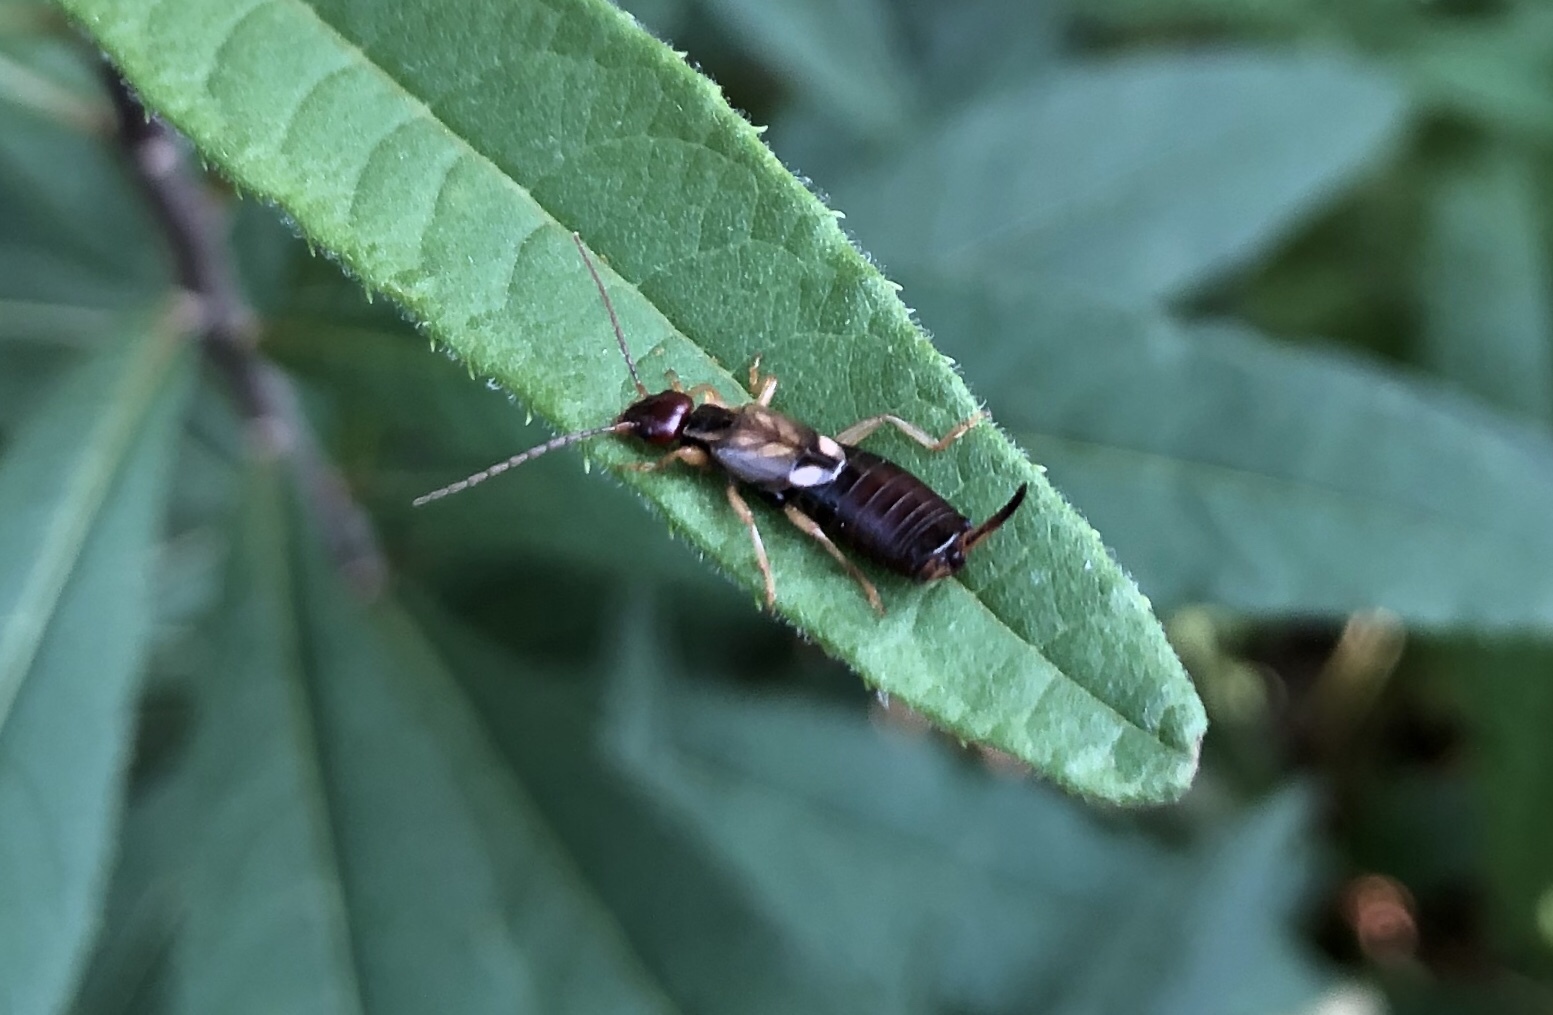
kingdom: Animalia
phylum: Arthropoda
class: Insecta
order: Dermaptera
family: Forficulidae
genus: Forficula
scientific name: Forficula
